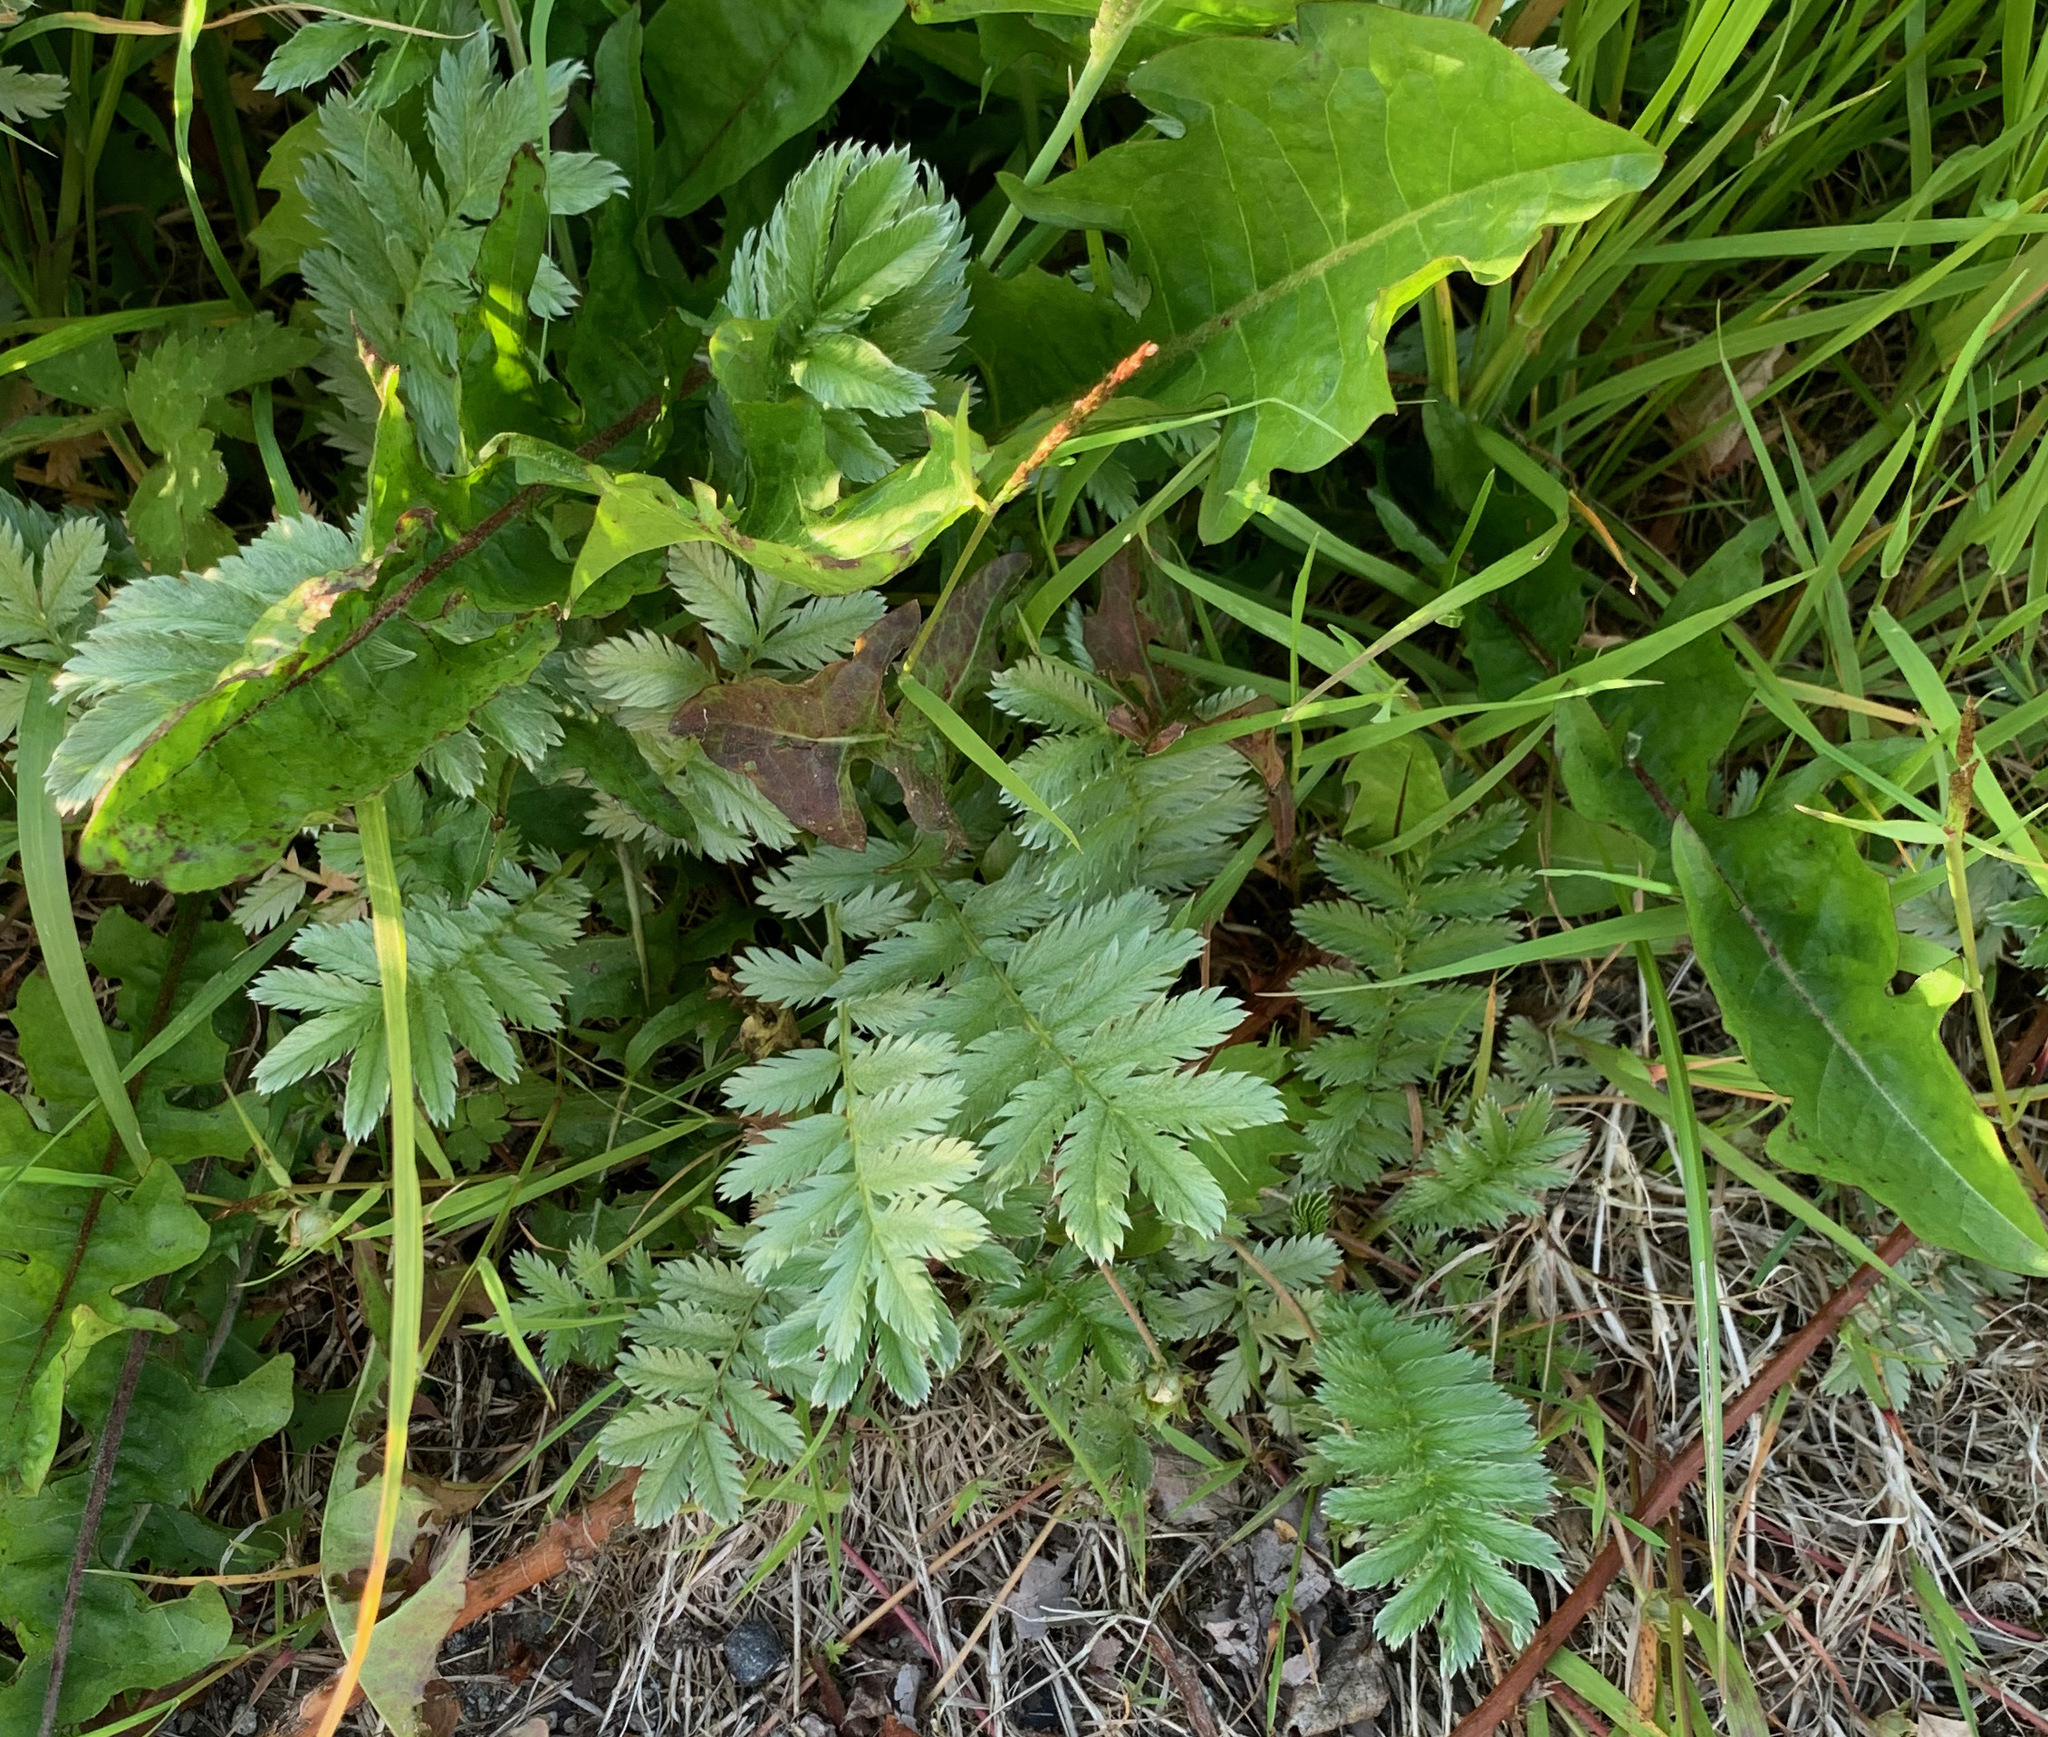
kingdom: Plantae
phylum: Tracheophyta
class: Magnoliopsida
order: Rosales
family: Rosaceae
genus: Argentina
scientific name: Argentina anserina
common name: Common silverweed
